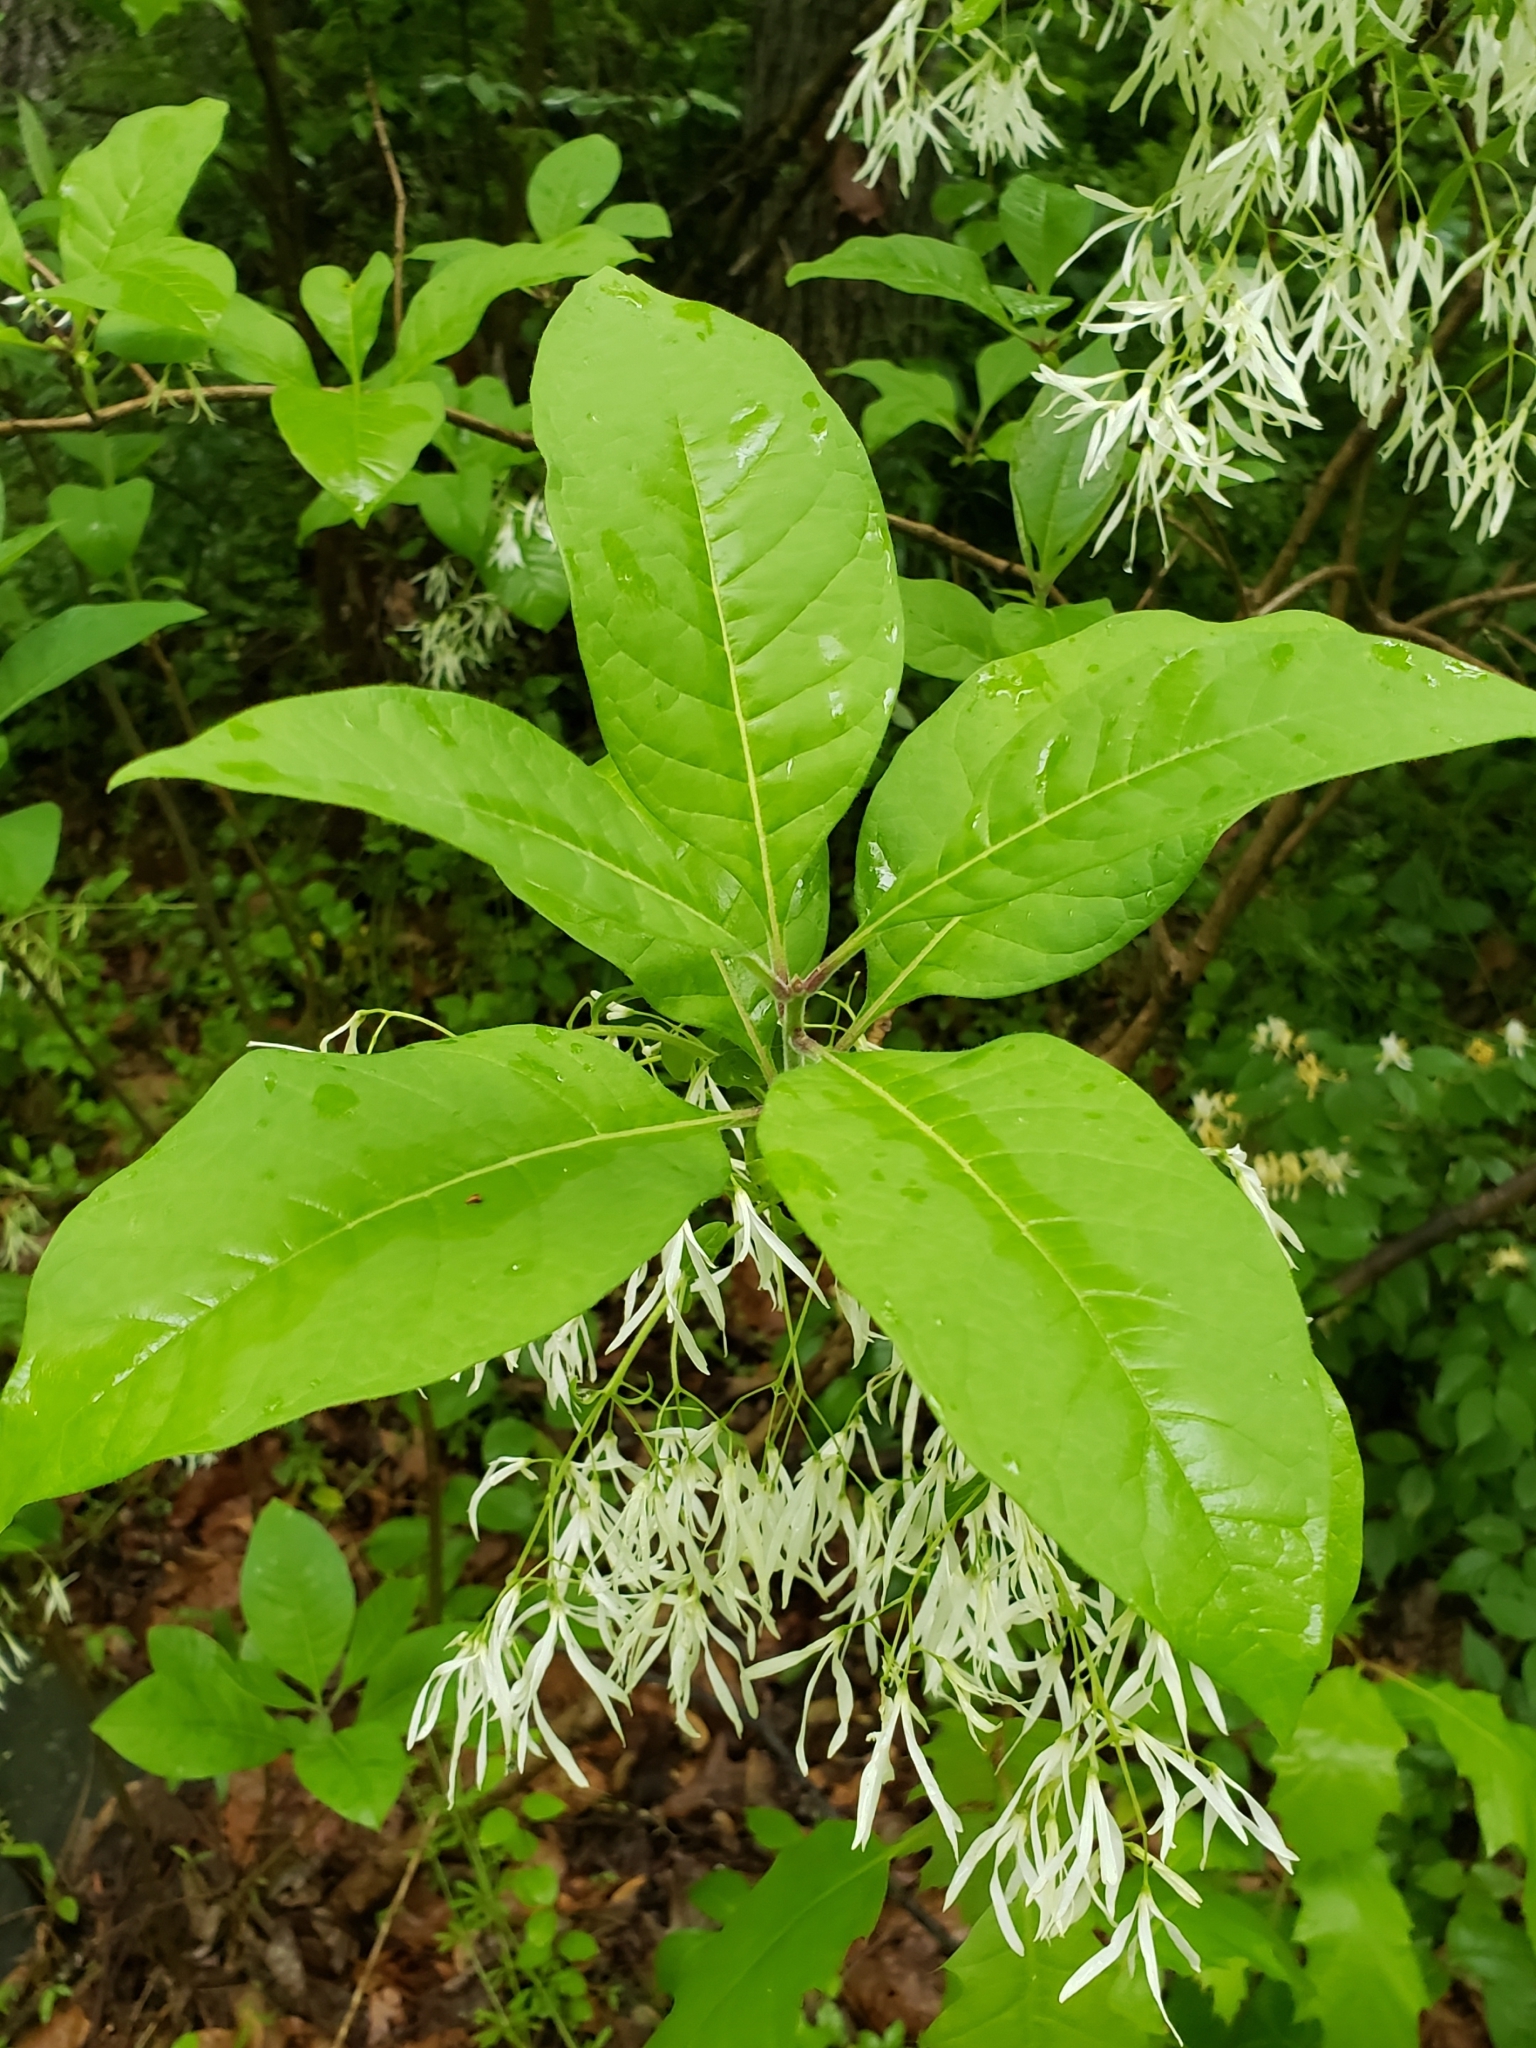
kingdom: Plantae
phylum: Tracheophyta
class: Magnoliopsida
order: Lamiales
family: Oleaceae
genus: Chionanthus
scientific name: Chionanthus virginicus
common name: American fringetree
